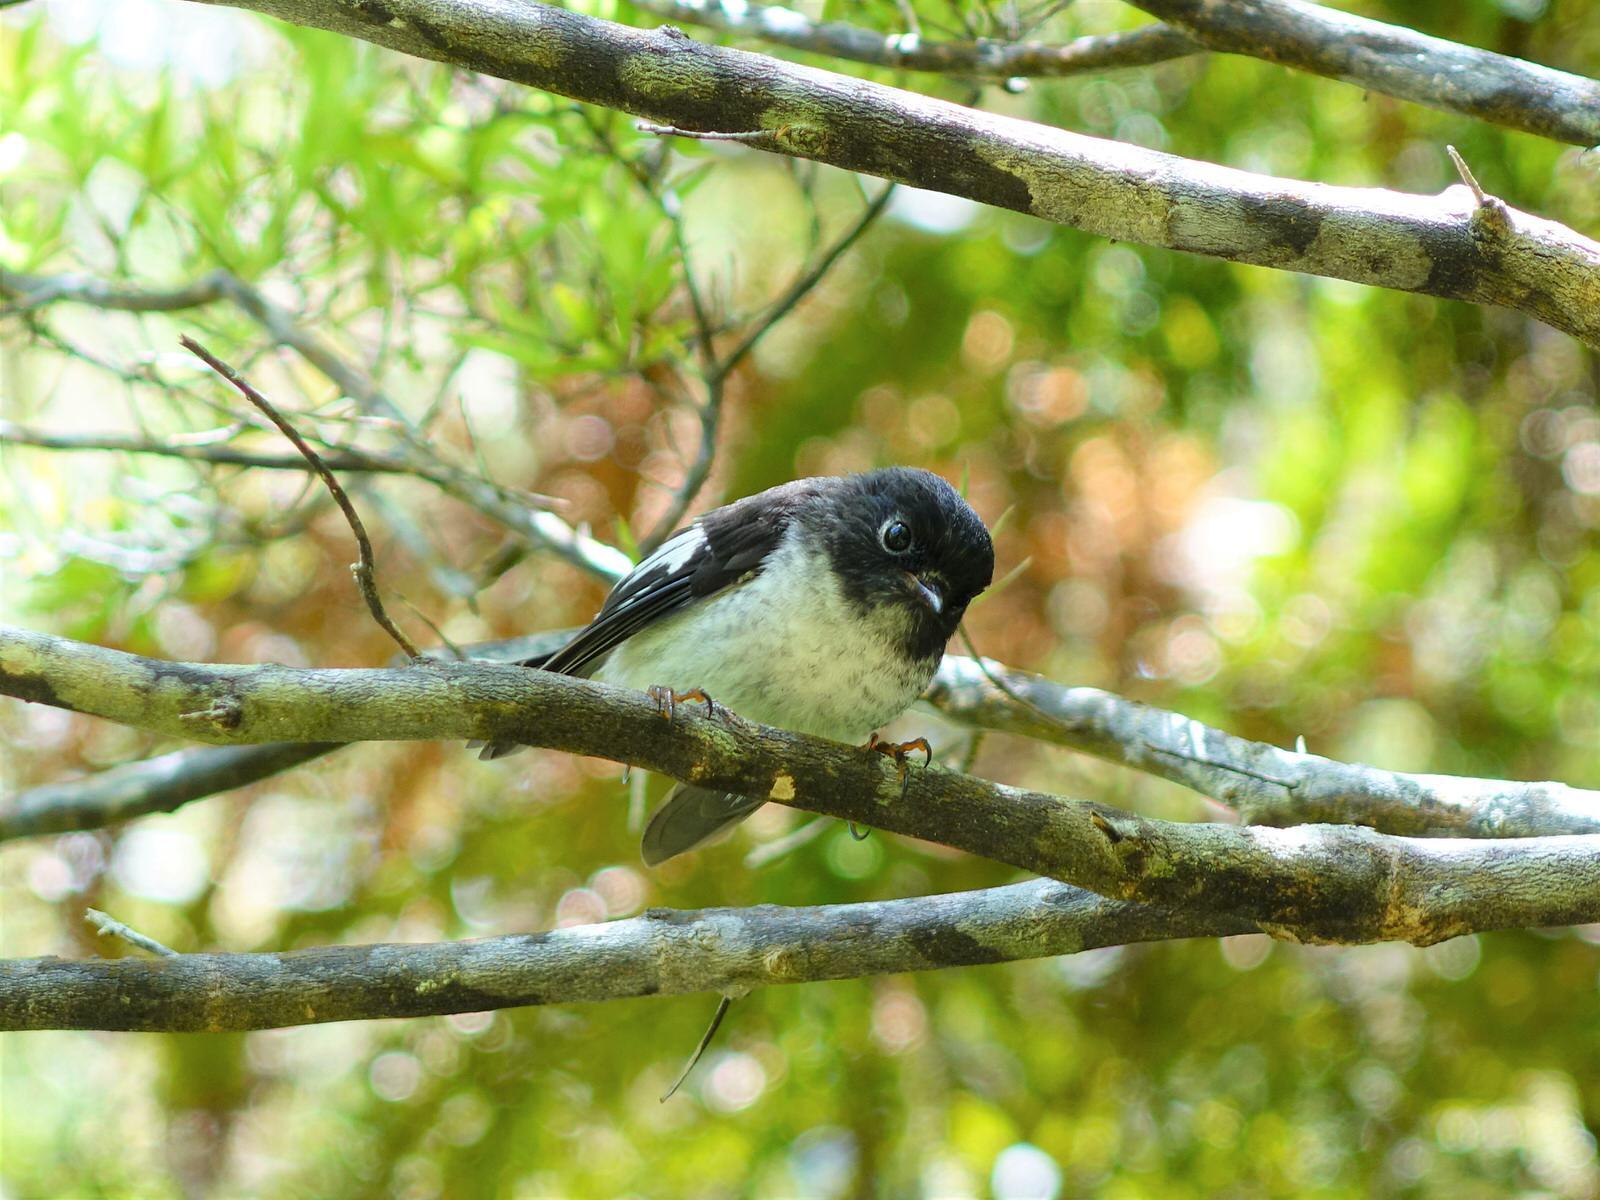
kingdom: Animalia
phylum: Chordata
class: Aves
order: Passeriformes
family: Petroicidae
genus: Petroica
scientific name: Petroica macrocephala
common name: Tomtit
